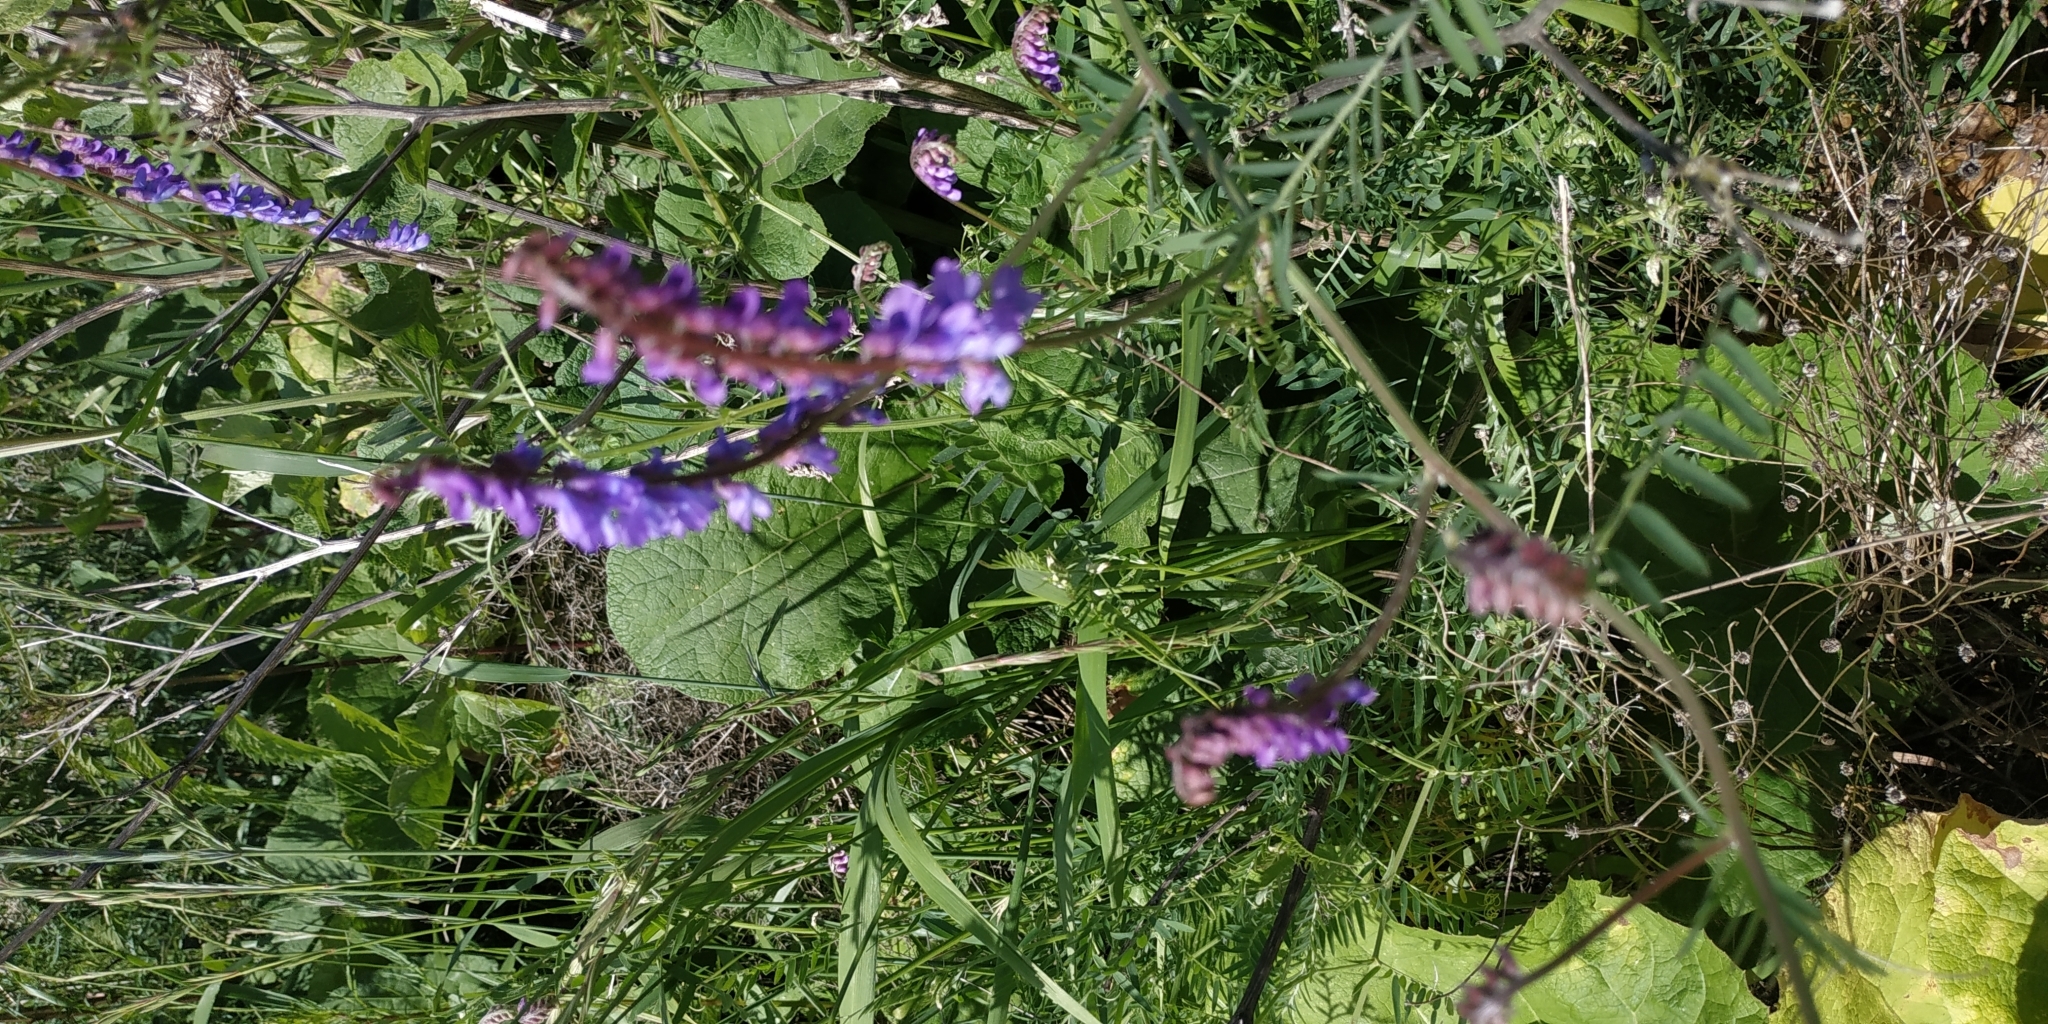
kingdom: Plantae
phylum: Tracheophyta
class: Magnoliopsida
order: Fabales
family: Fabaceae
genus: Vicia
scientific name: Vicia cracca
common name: Bird vetch
